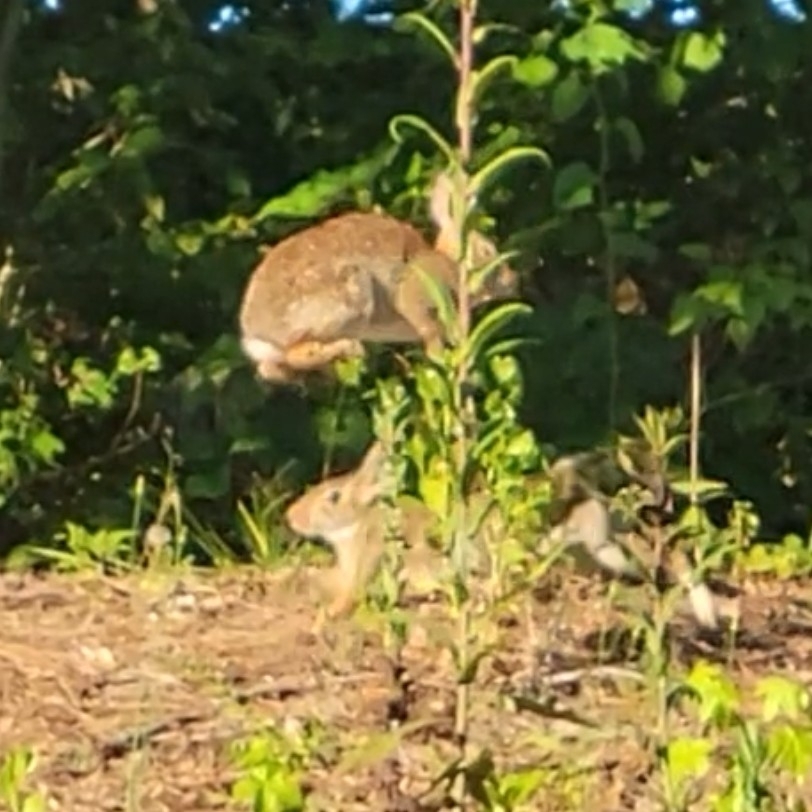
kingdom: Animalia
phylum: Chordata
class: Mammalia
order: Lagomorpha
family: Leporidae
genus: Sylvilagus
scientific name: Sylvilagus floridanus
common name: Eastern cottontail
